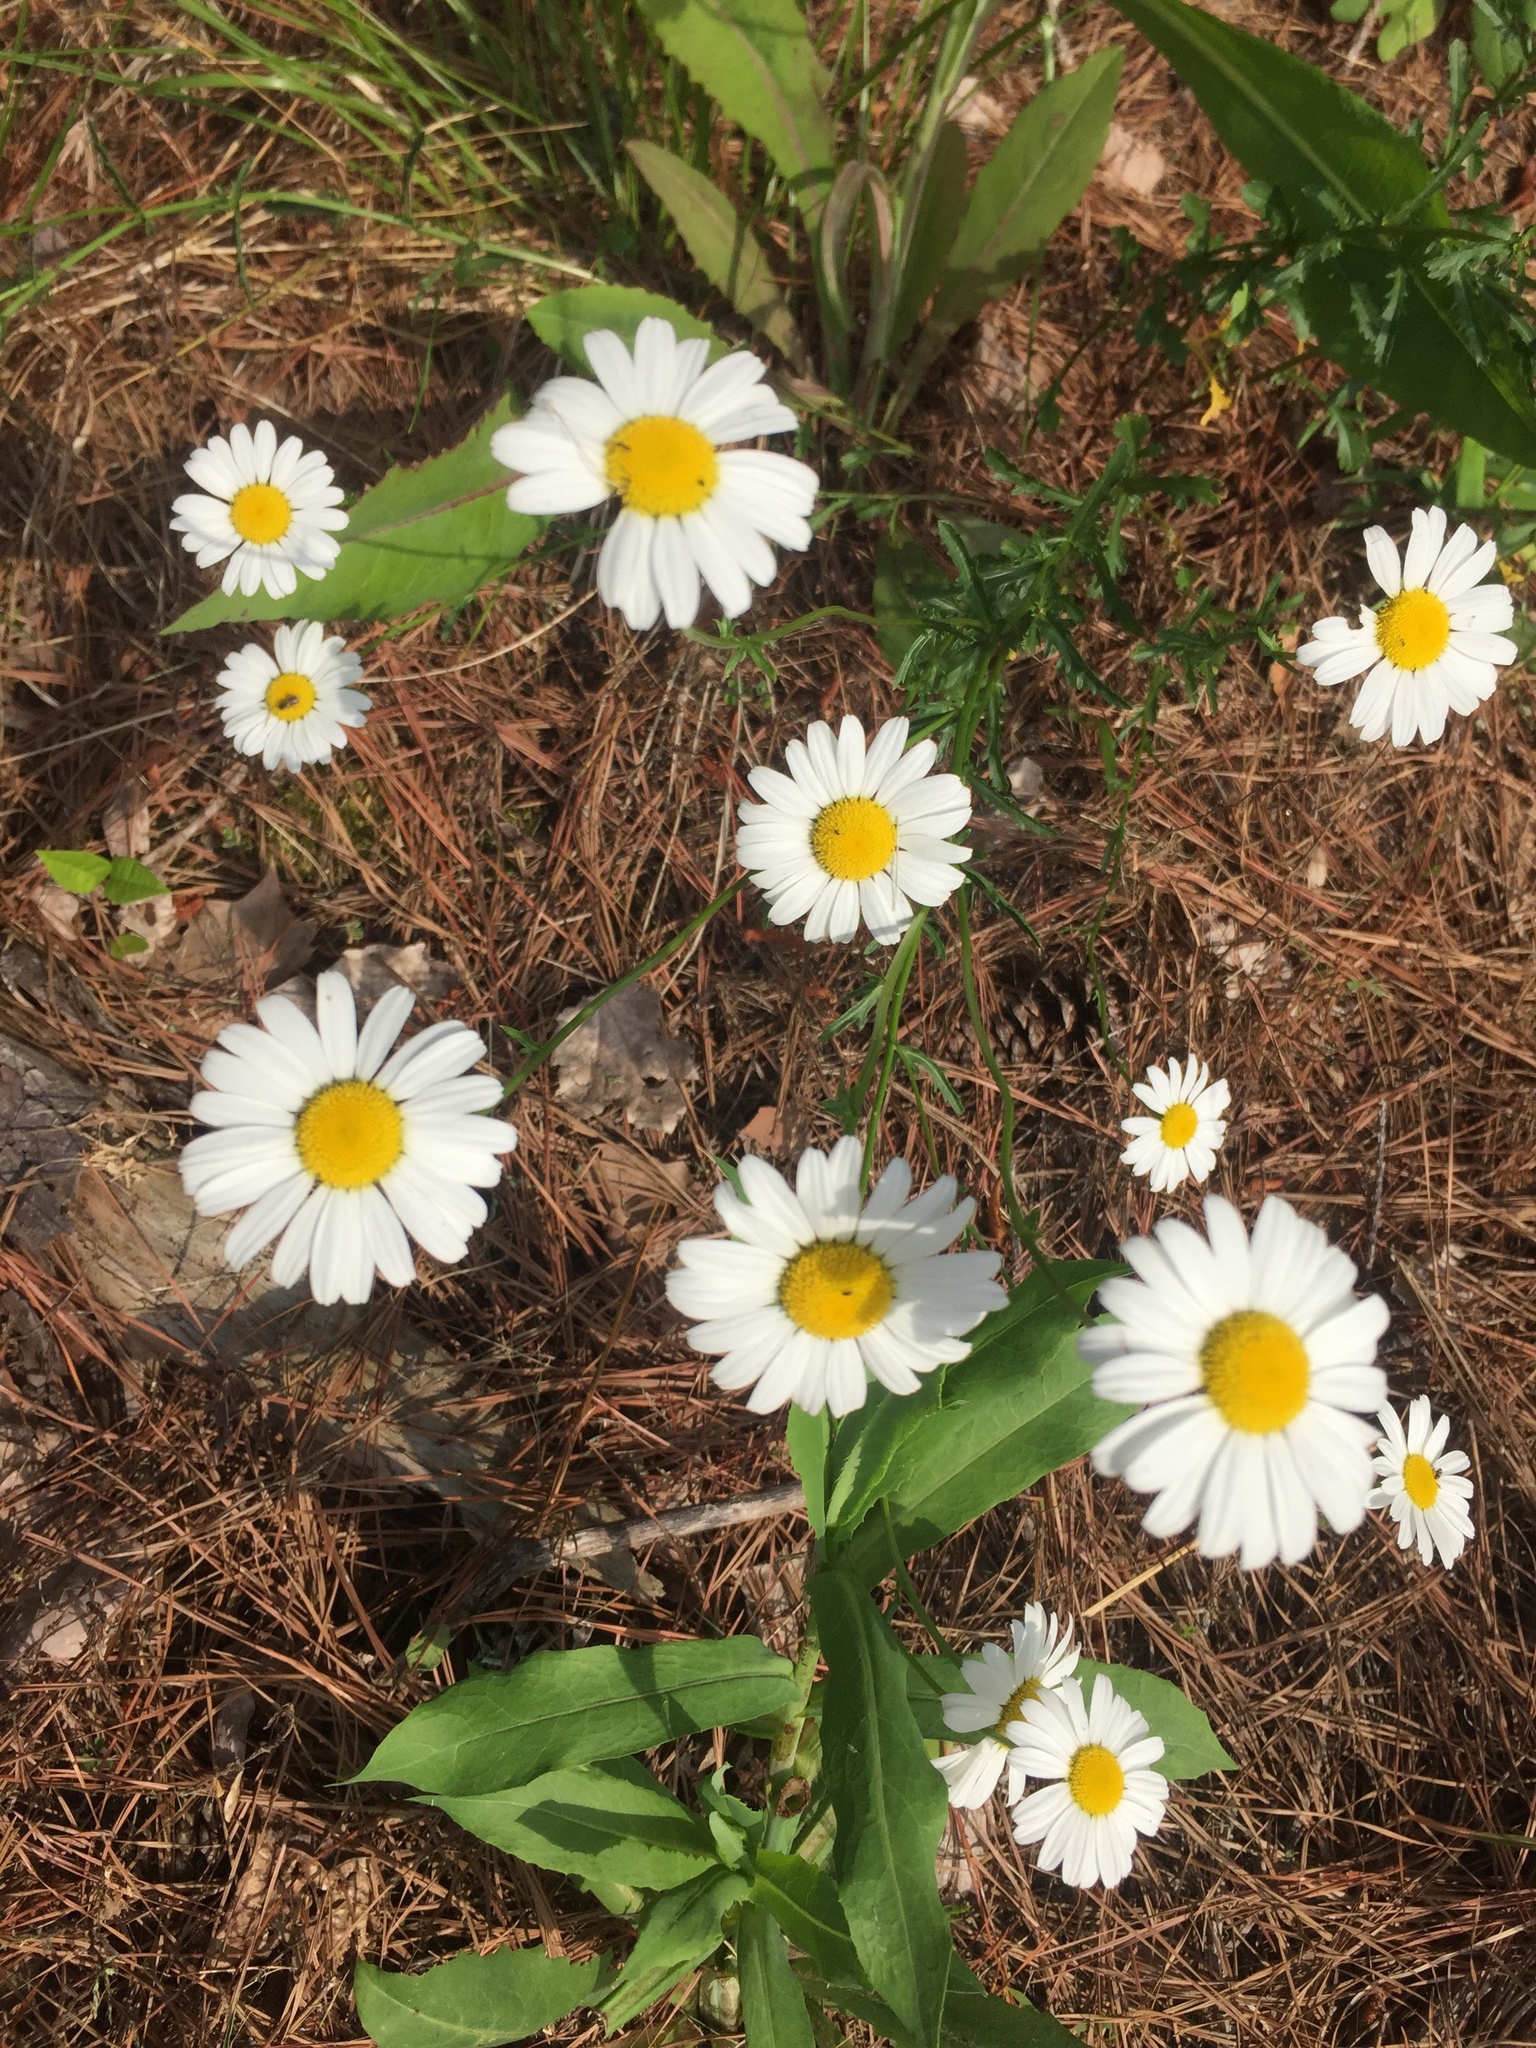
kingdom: Plantae
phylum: Tracheophyta
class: Magnoliopsida
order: Asterales
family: Asteraceae
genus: Leucanthemum
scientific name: Leucanthemum vulgare
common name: Oxeye daisy
